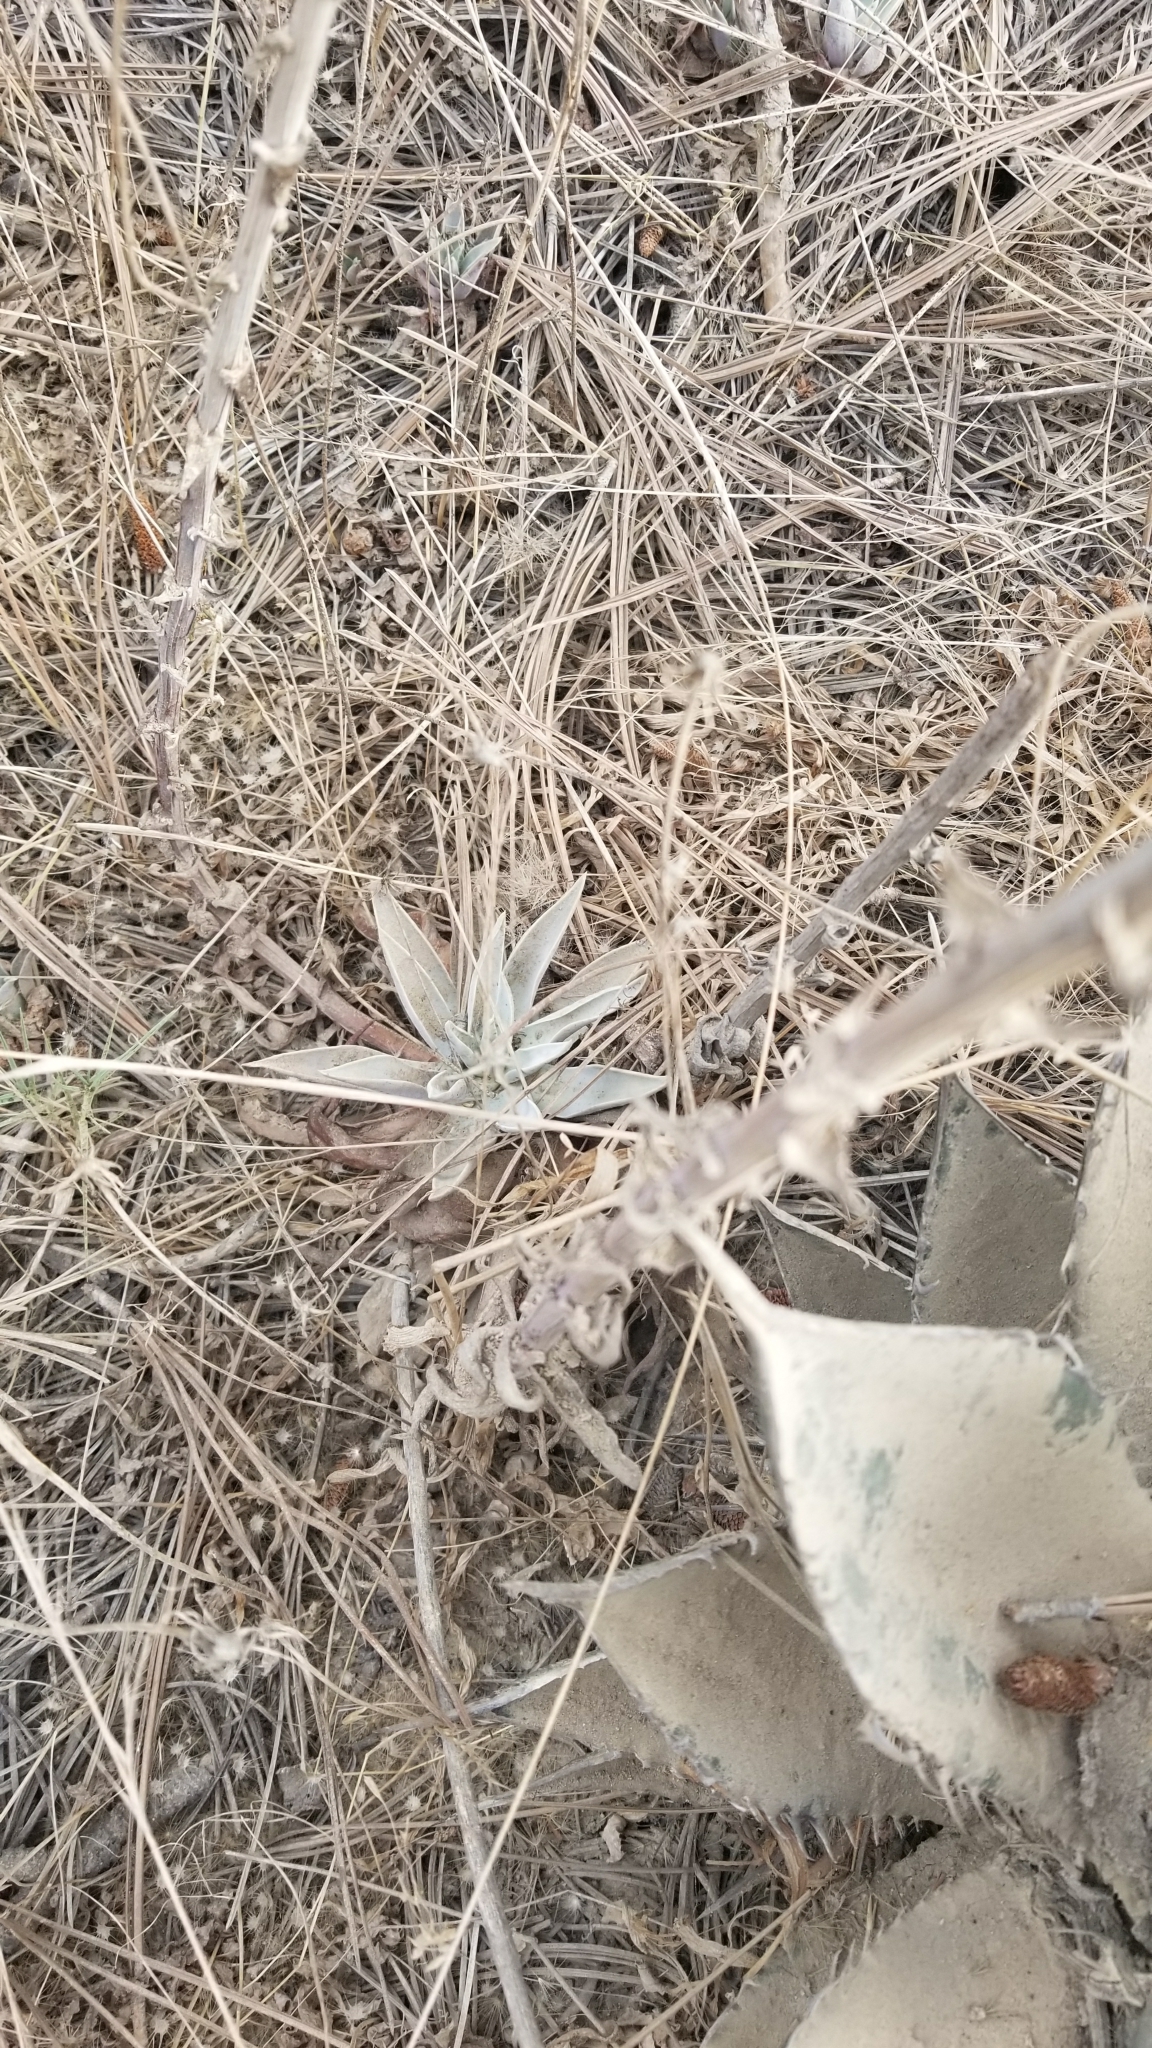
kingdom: Plantae
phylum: Tracheophyta
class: Magnoliopsida
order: Saxifragales
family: Crassulaceae
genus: Dudleya
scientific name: Dudleya lanceolata
